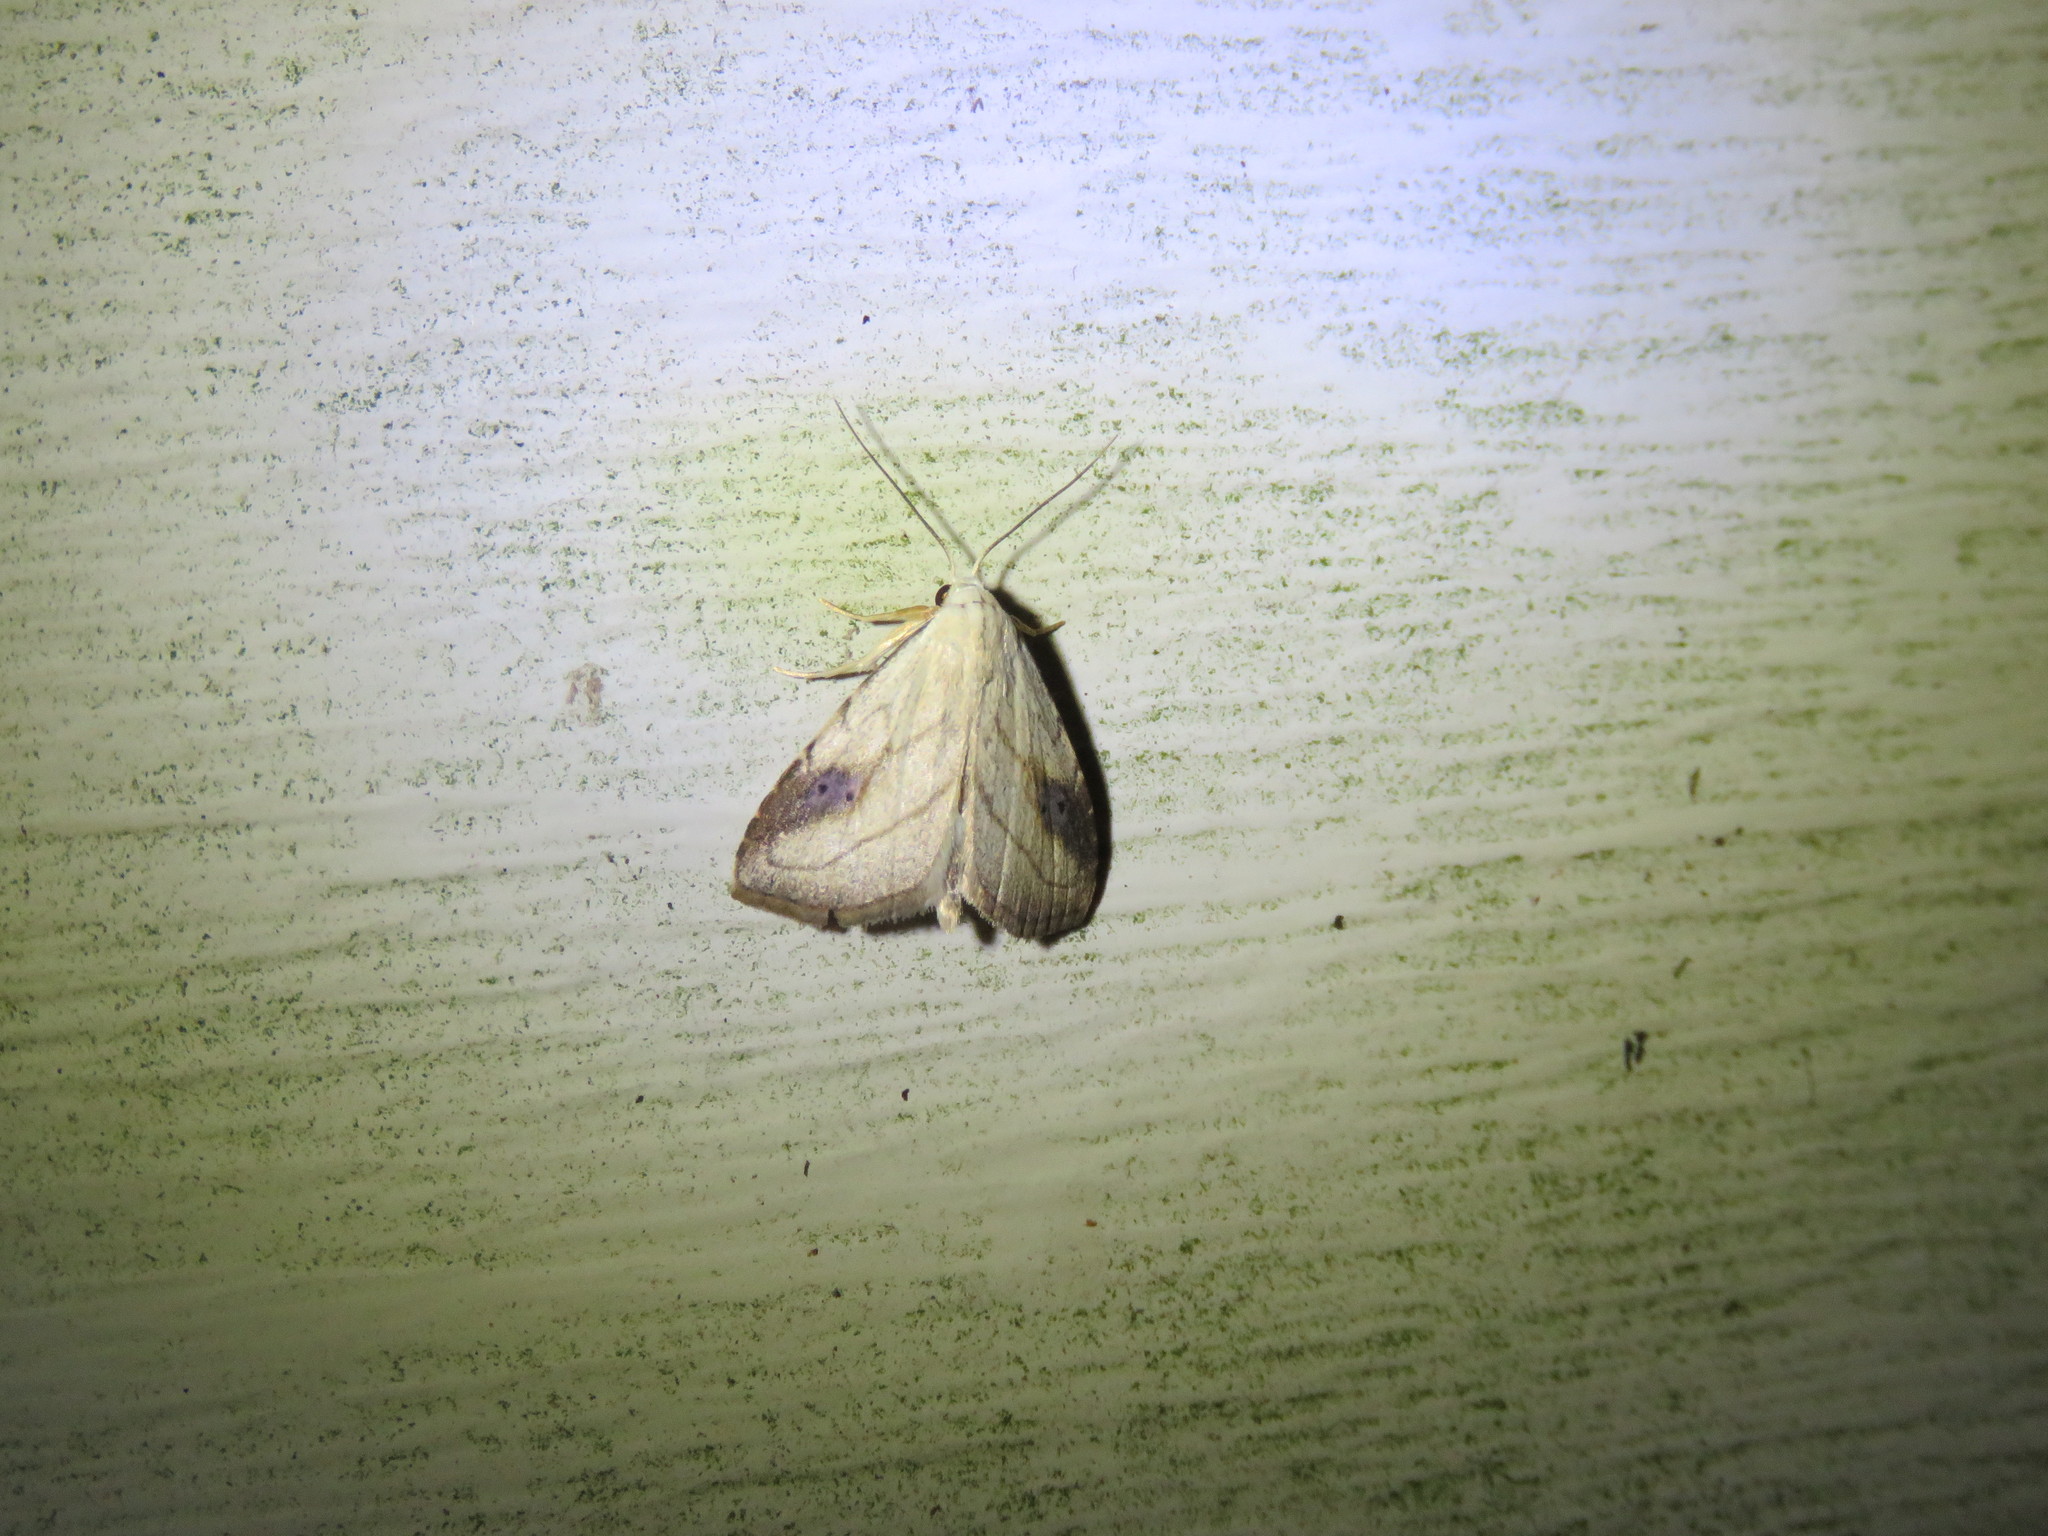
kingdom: Animalia
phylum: Arthropoda
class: Insecta
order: Lepidoptera
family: Erebidae
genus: Rivula
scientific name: Rivula propinqualis
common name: Spotted grass moth
